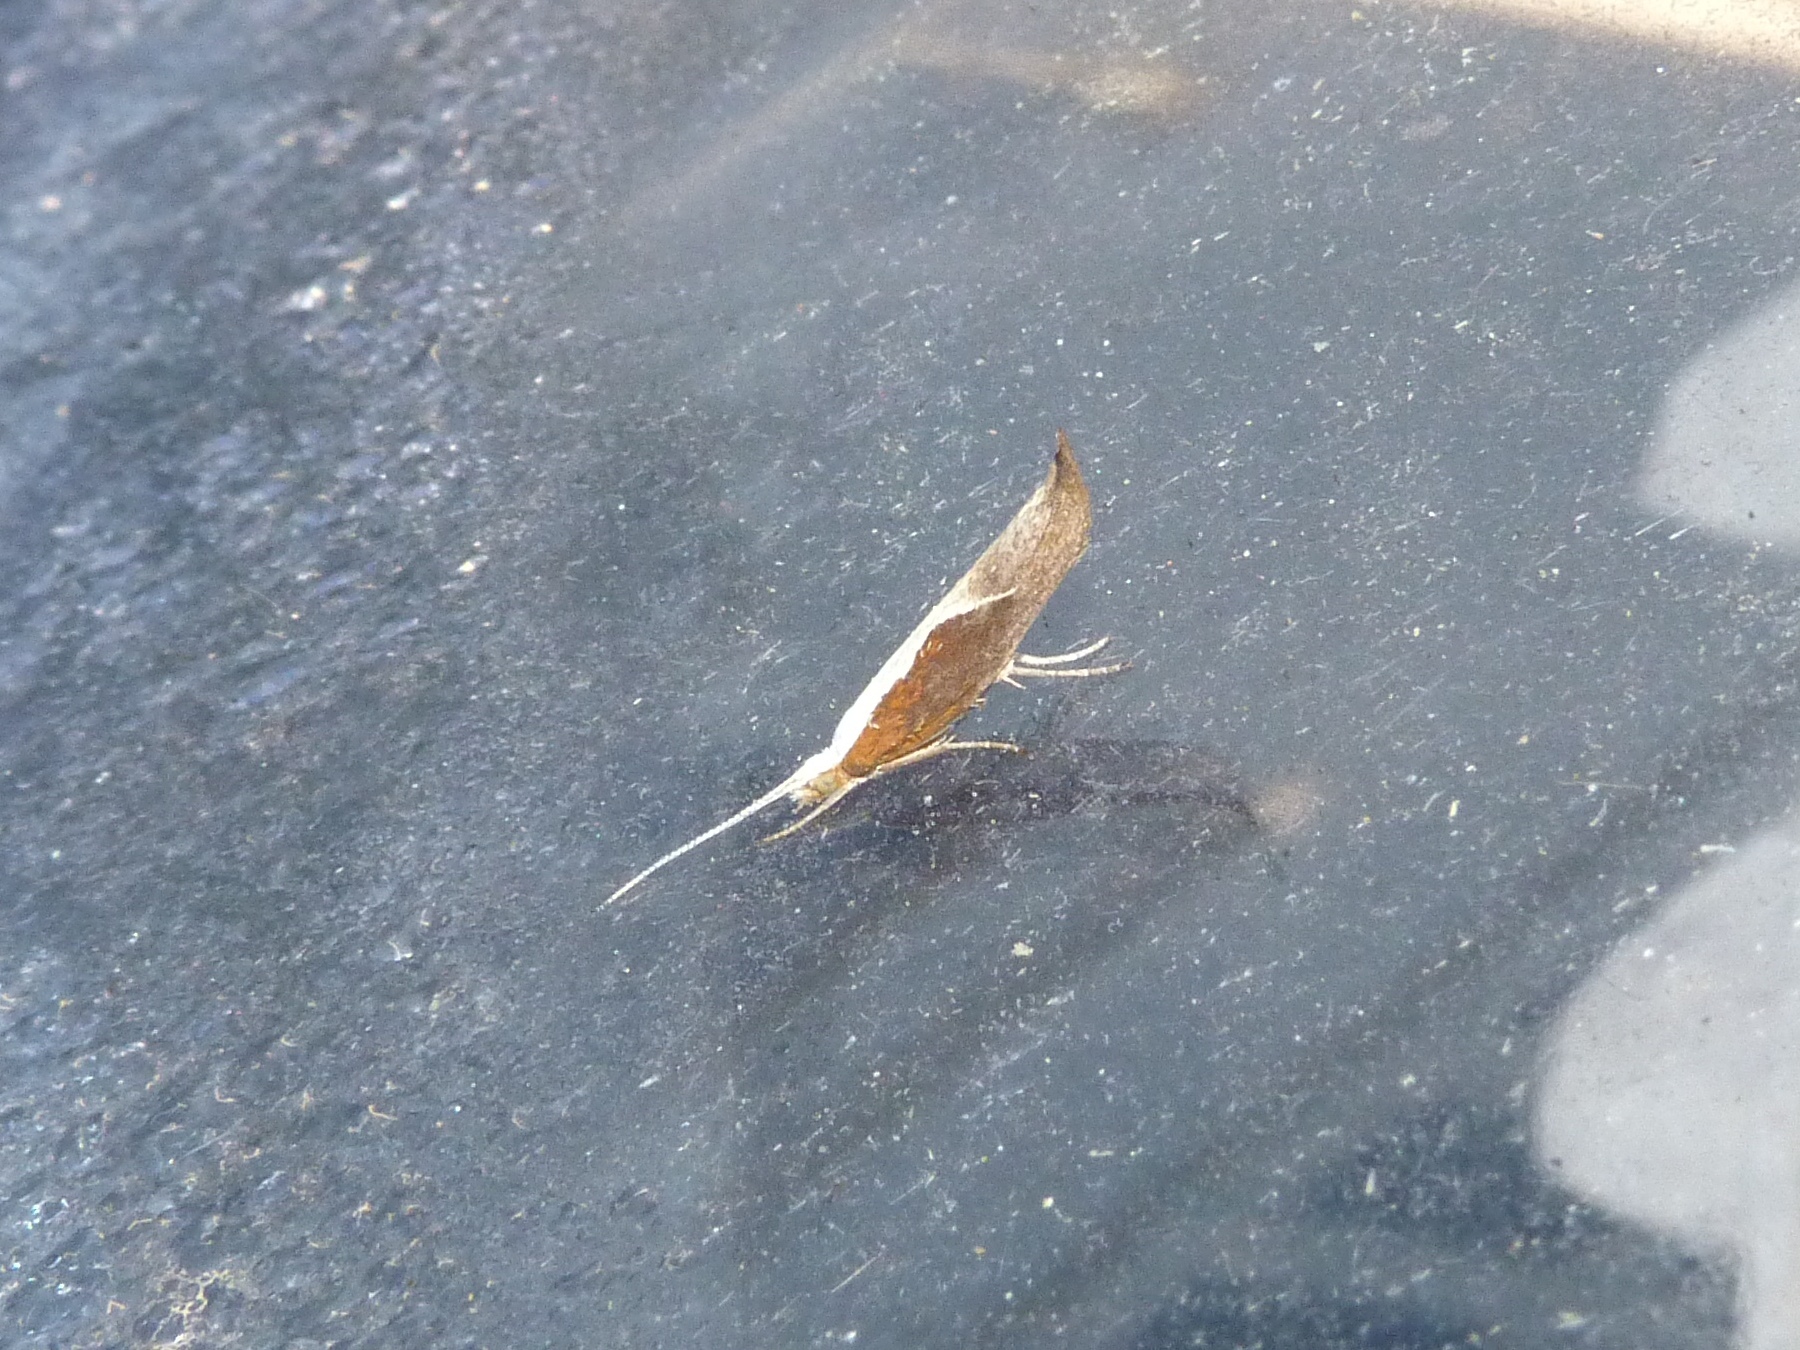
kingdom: Animalia
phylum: Arthropoda
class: Insecta
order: Lepidoptera
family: Ypsolophidae
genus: Ypsolopha
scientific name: Ypsolopha dentella
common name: Honeysuckle moth
